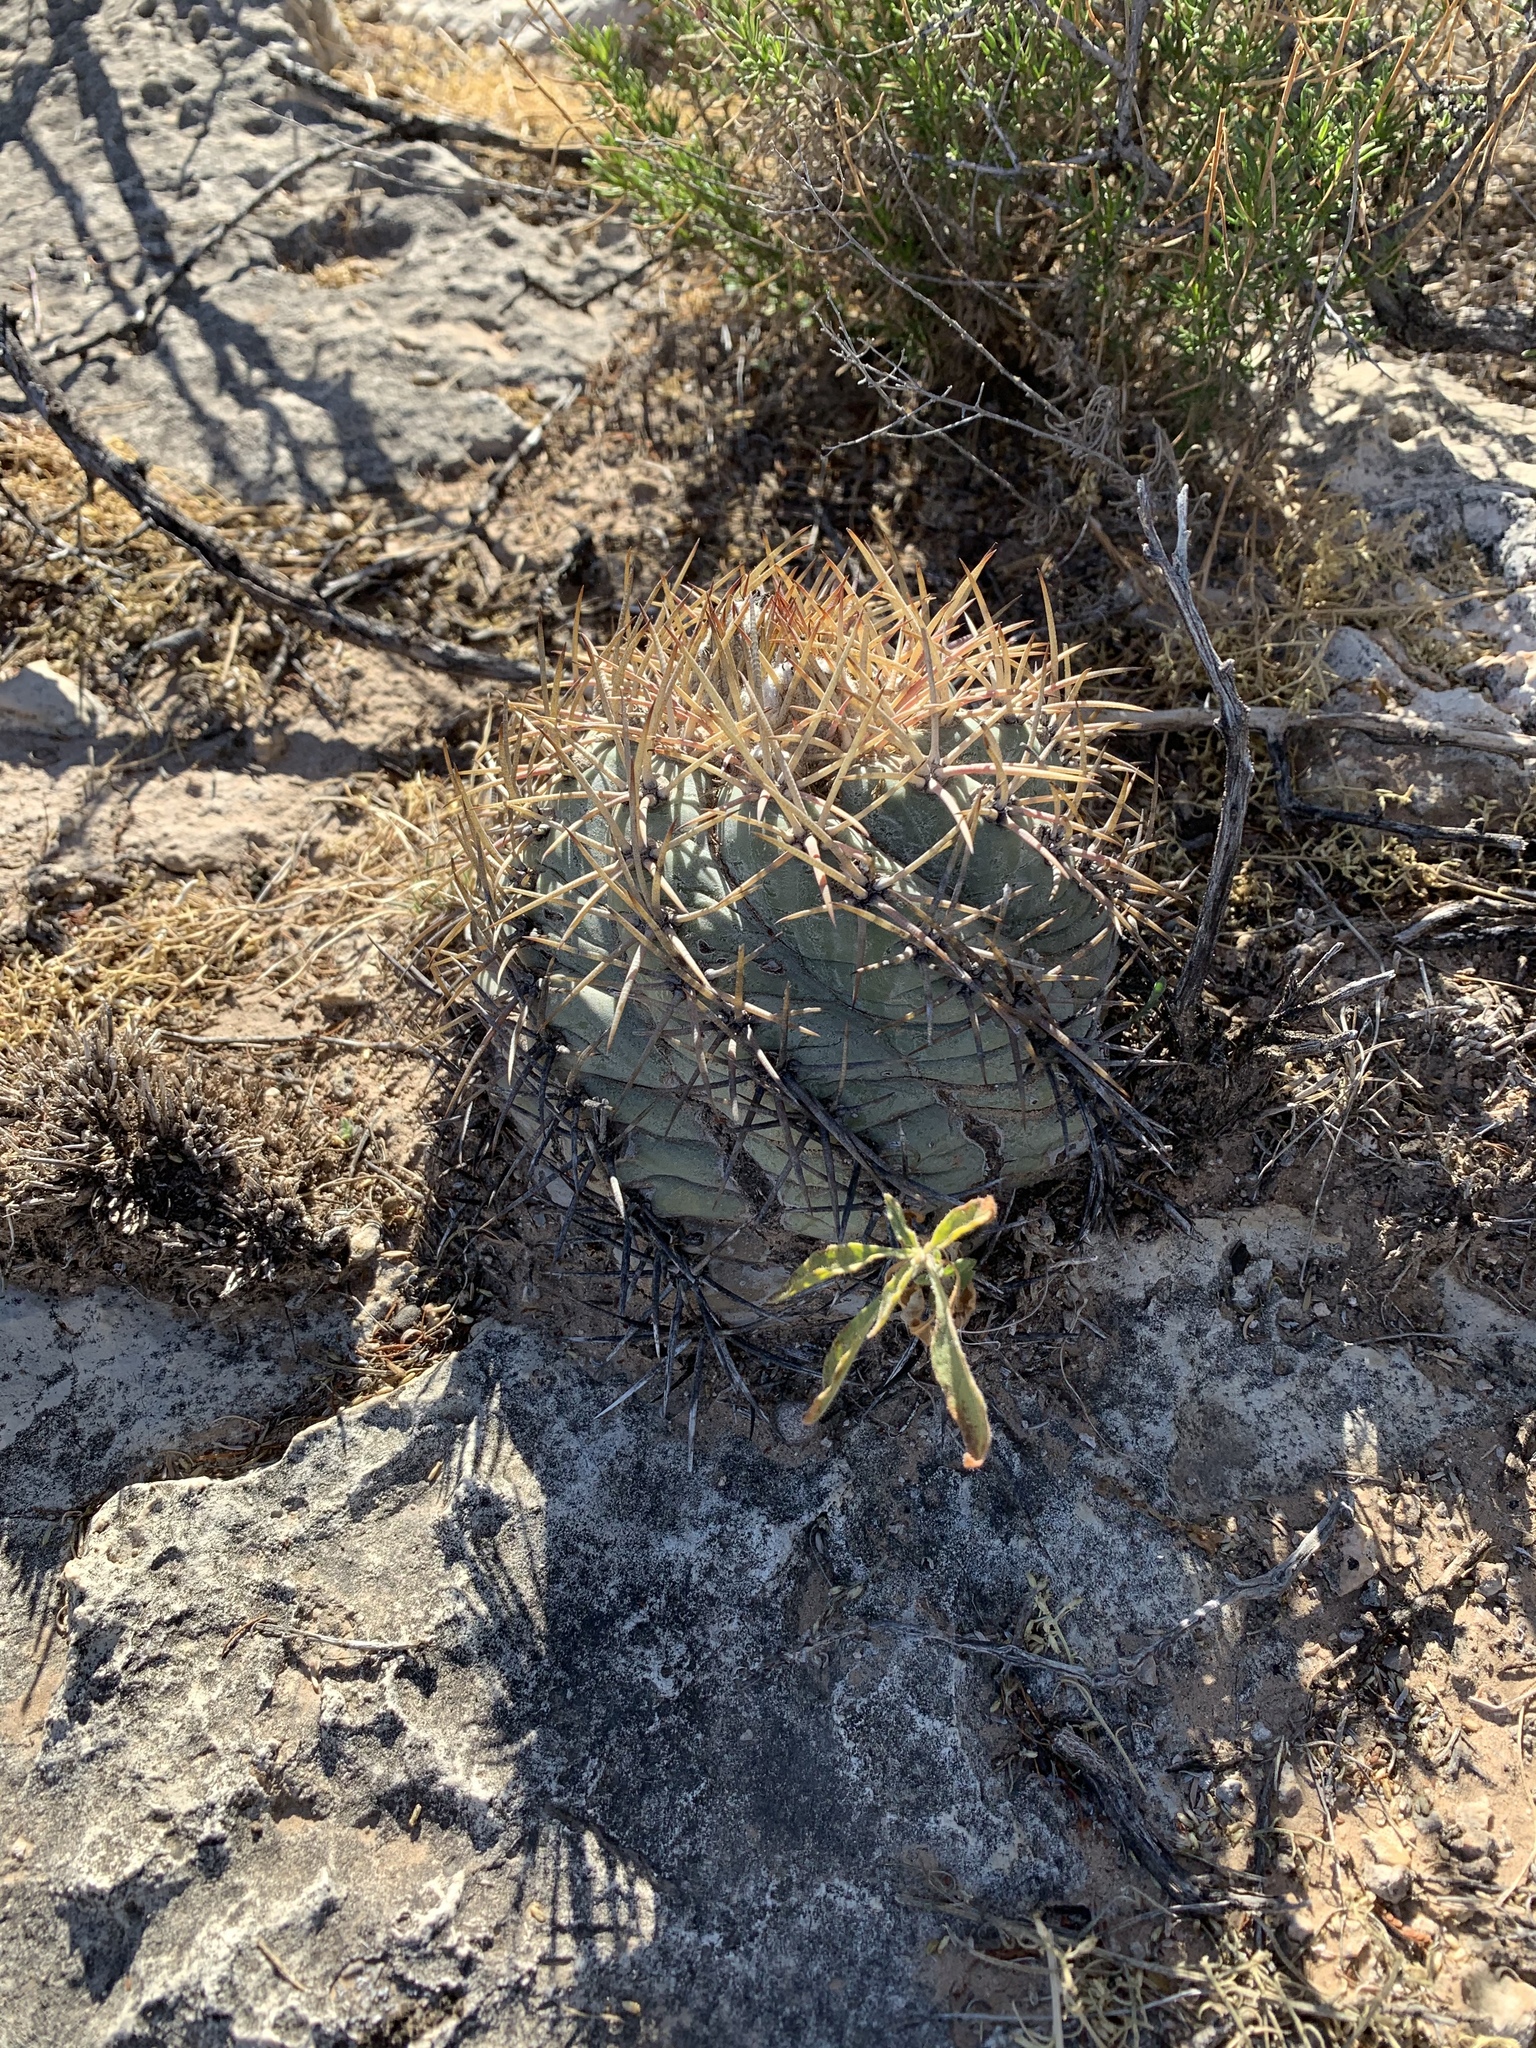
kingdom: Plantae
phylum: Tracheophyta
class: Magnoliopsida
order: Caryophyllales
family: Cactaceae
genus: Echinocactus
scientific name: Echinocactus horizonthalonius
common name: Devilshead
